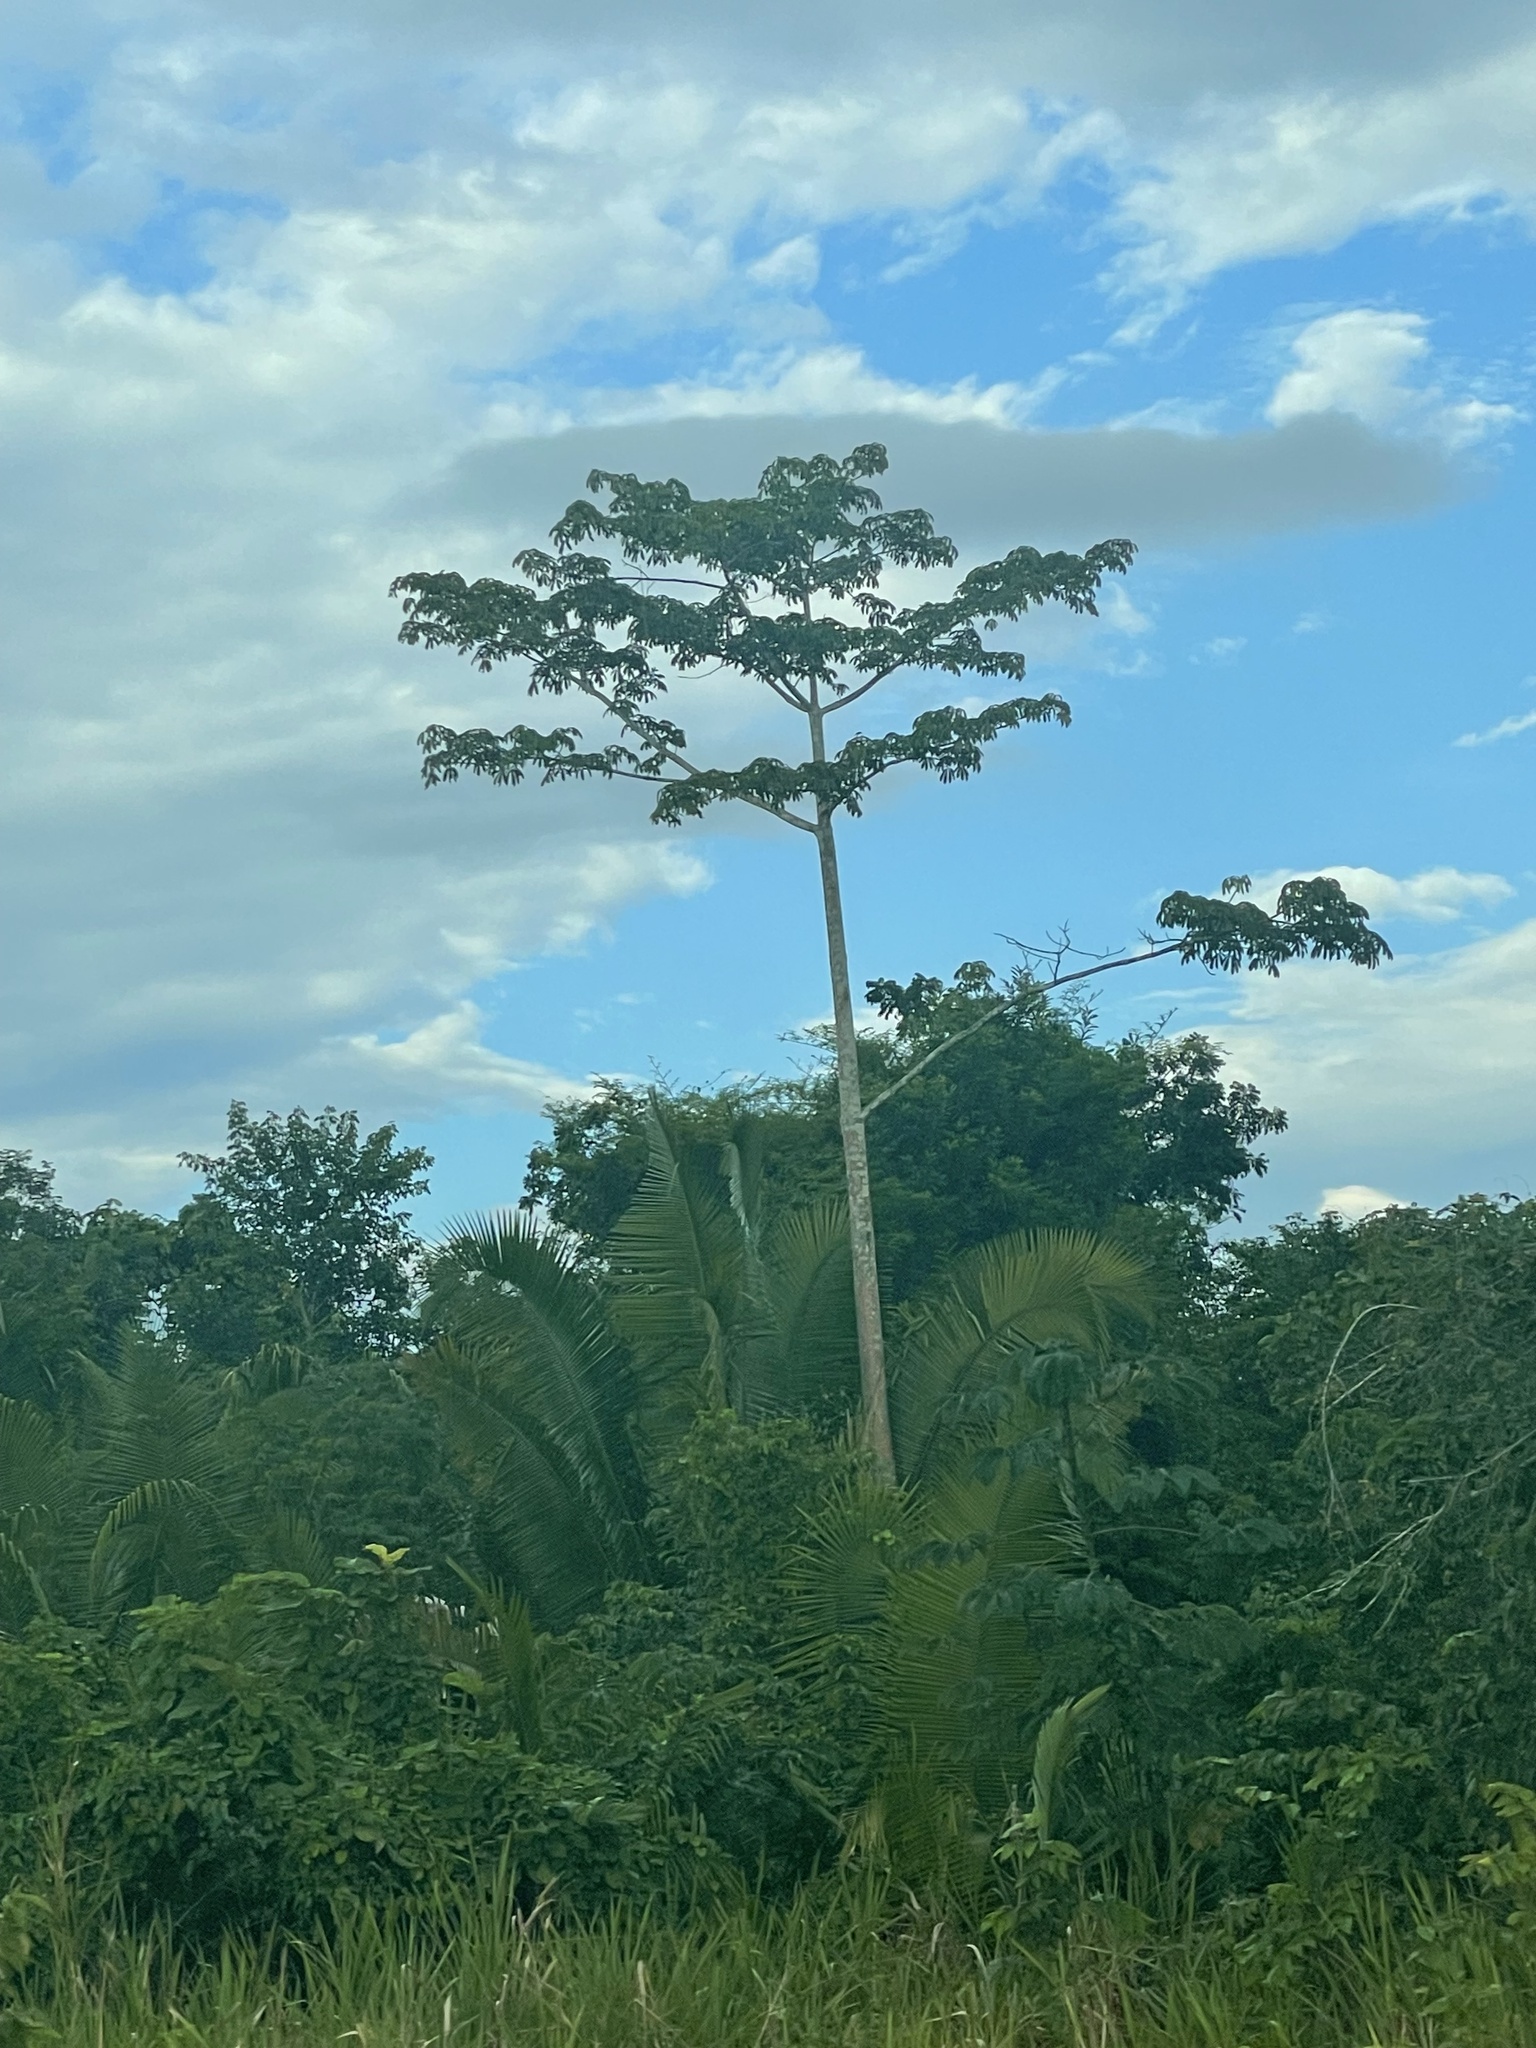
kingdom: Plantae
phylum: Tracheophyta
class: Magnoliopsida
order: Malvales
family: Malvaceae
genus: Ceiba
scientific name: Ceiba pentandra
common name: Kapok
